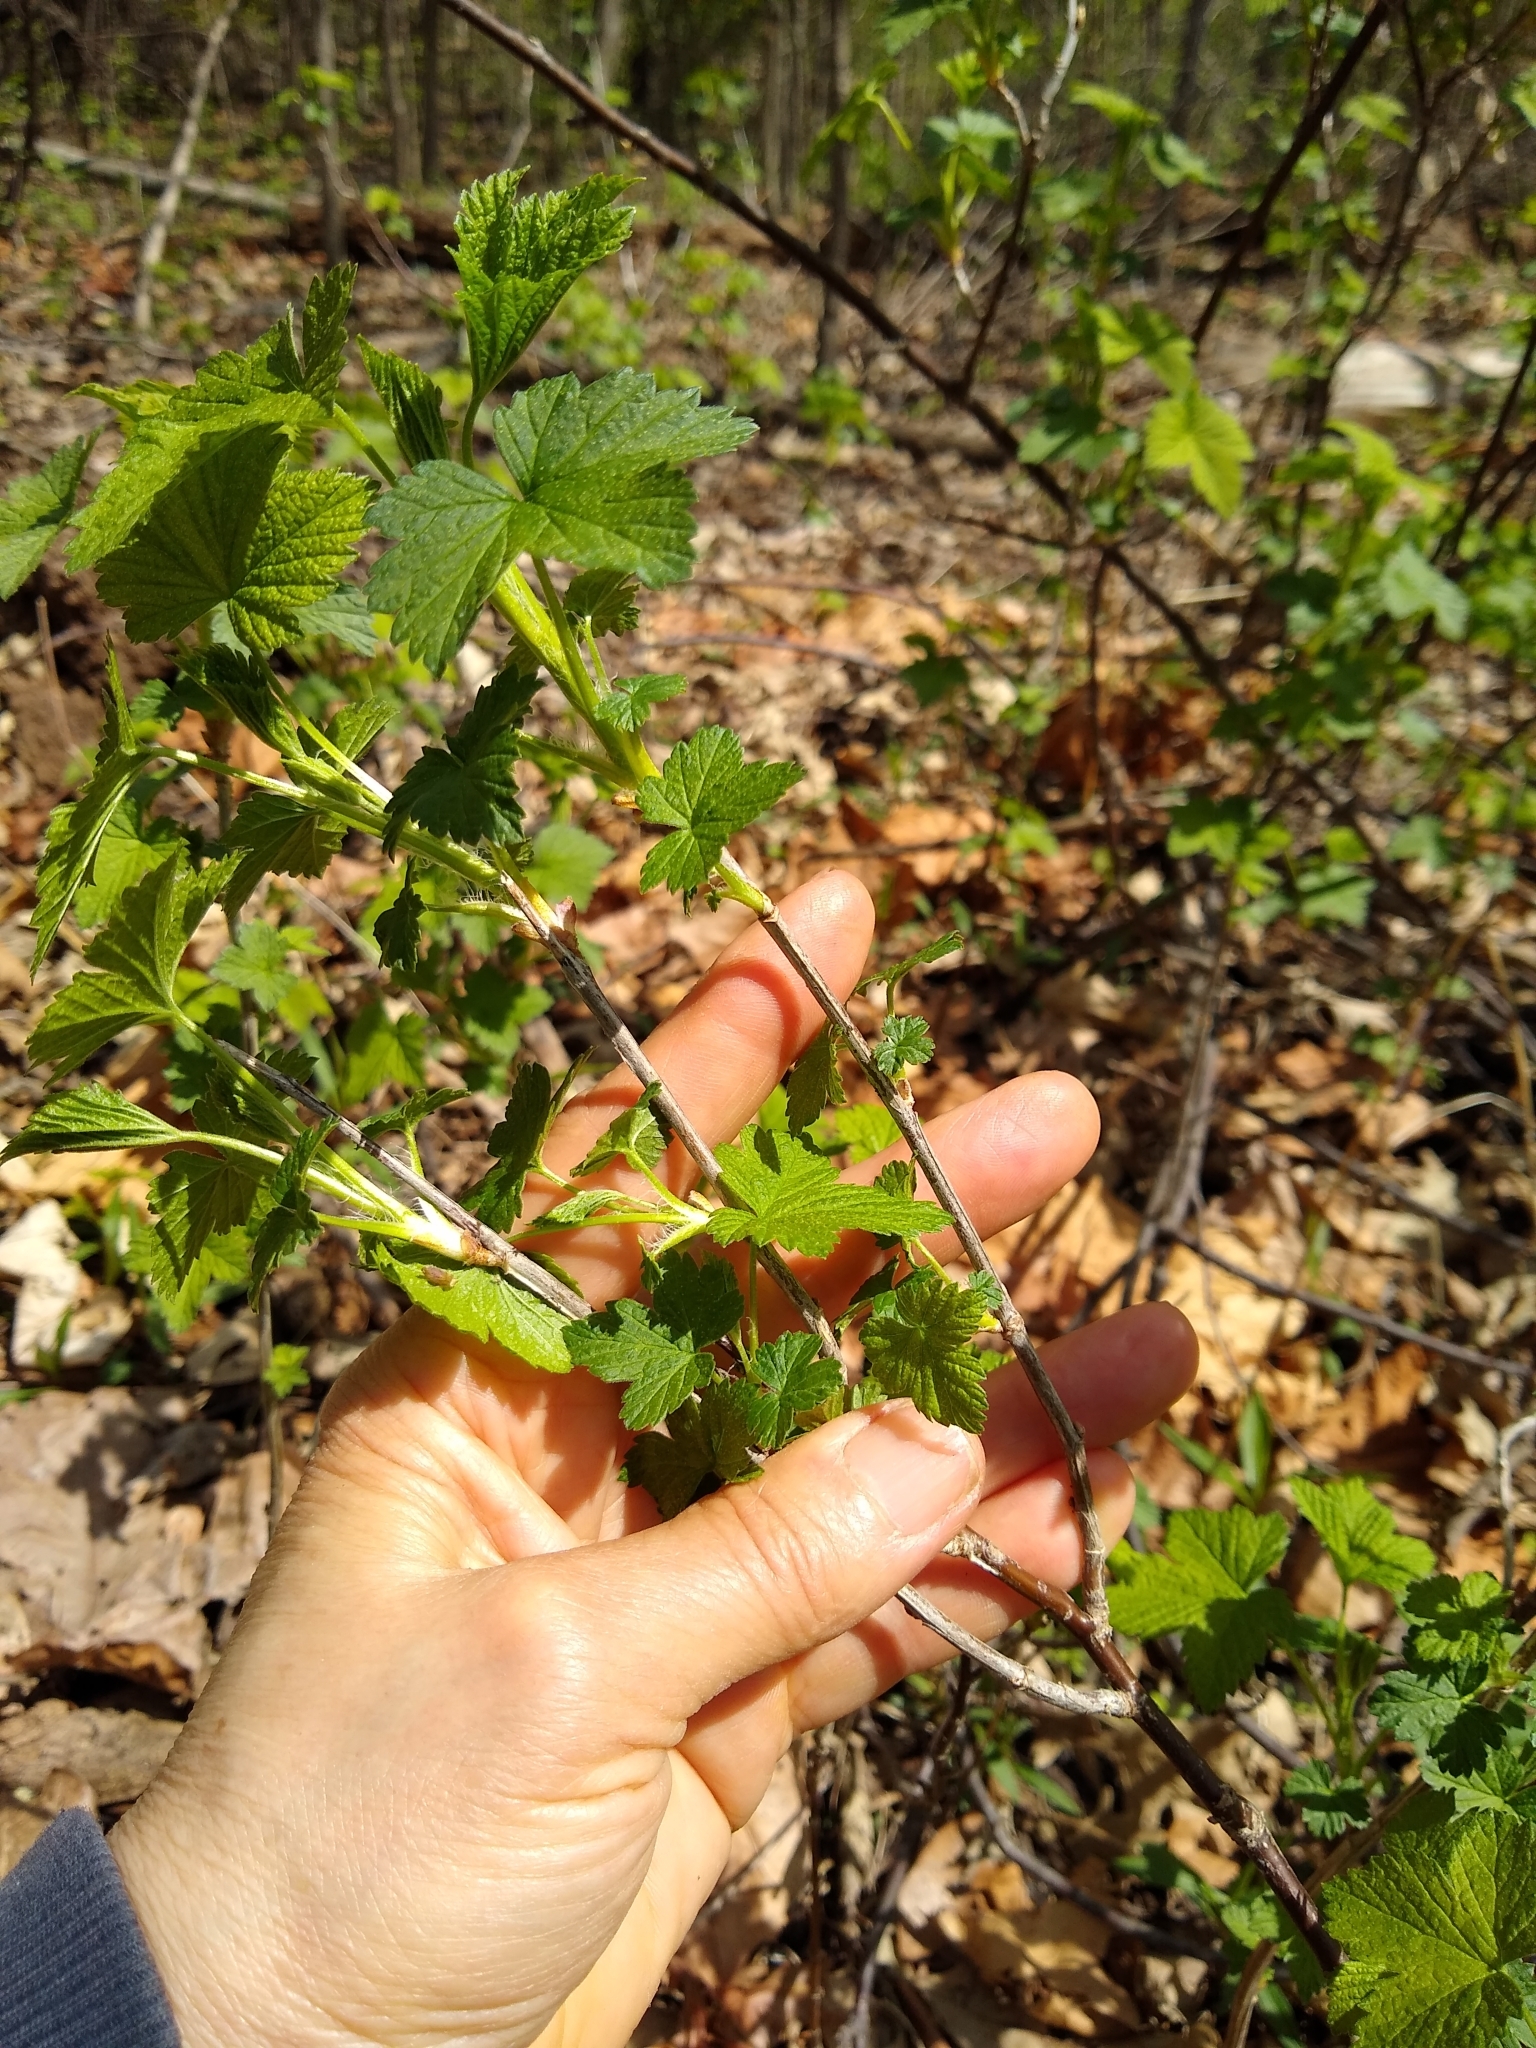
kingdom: Plantae
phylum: Tracheophyta
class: Magnoliopsida
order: Saxifragales
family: Grossulariaceae
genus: Ribes
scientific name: Ribes americanum
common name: American black currant
